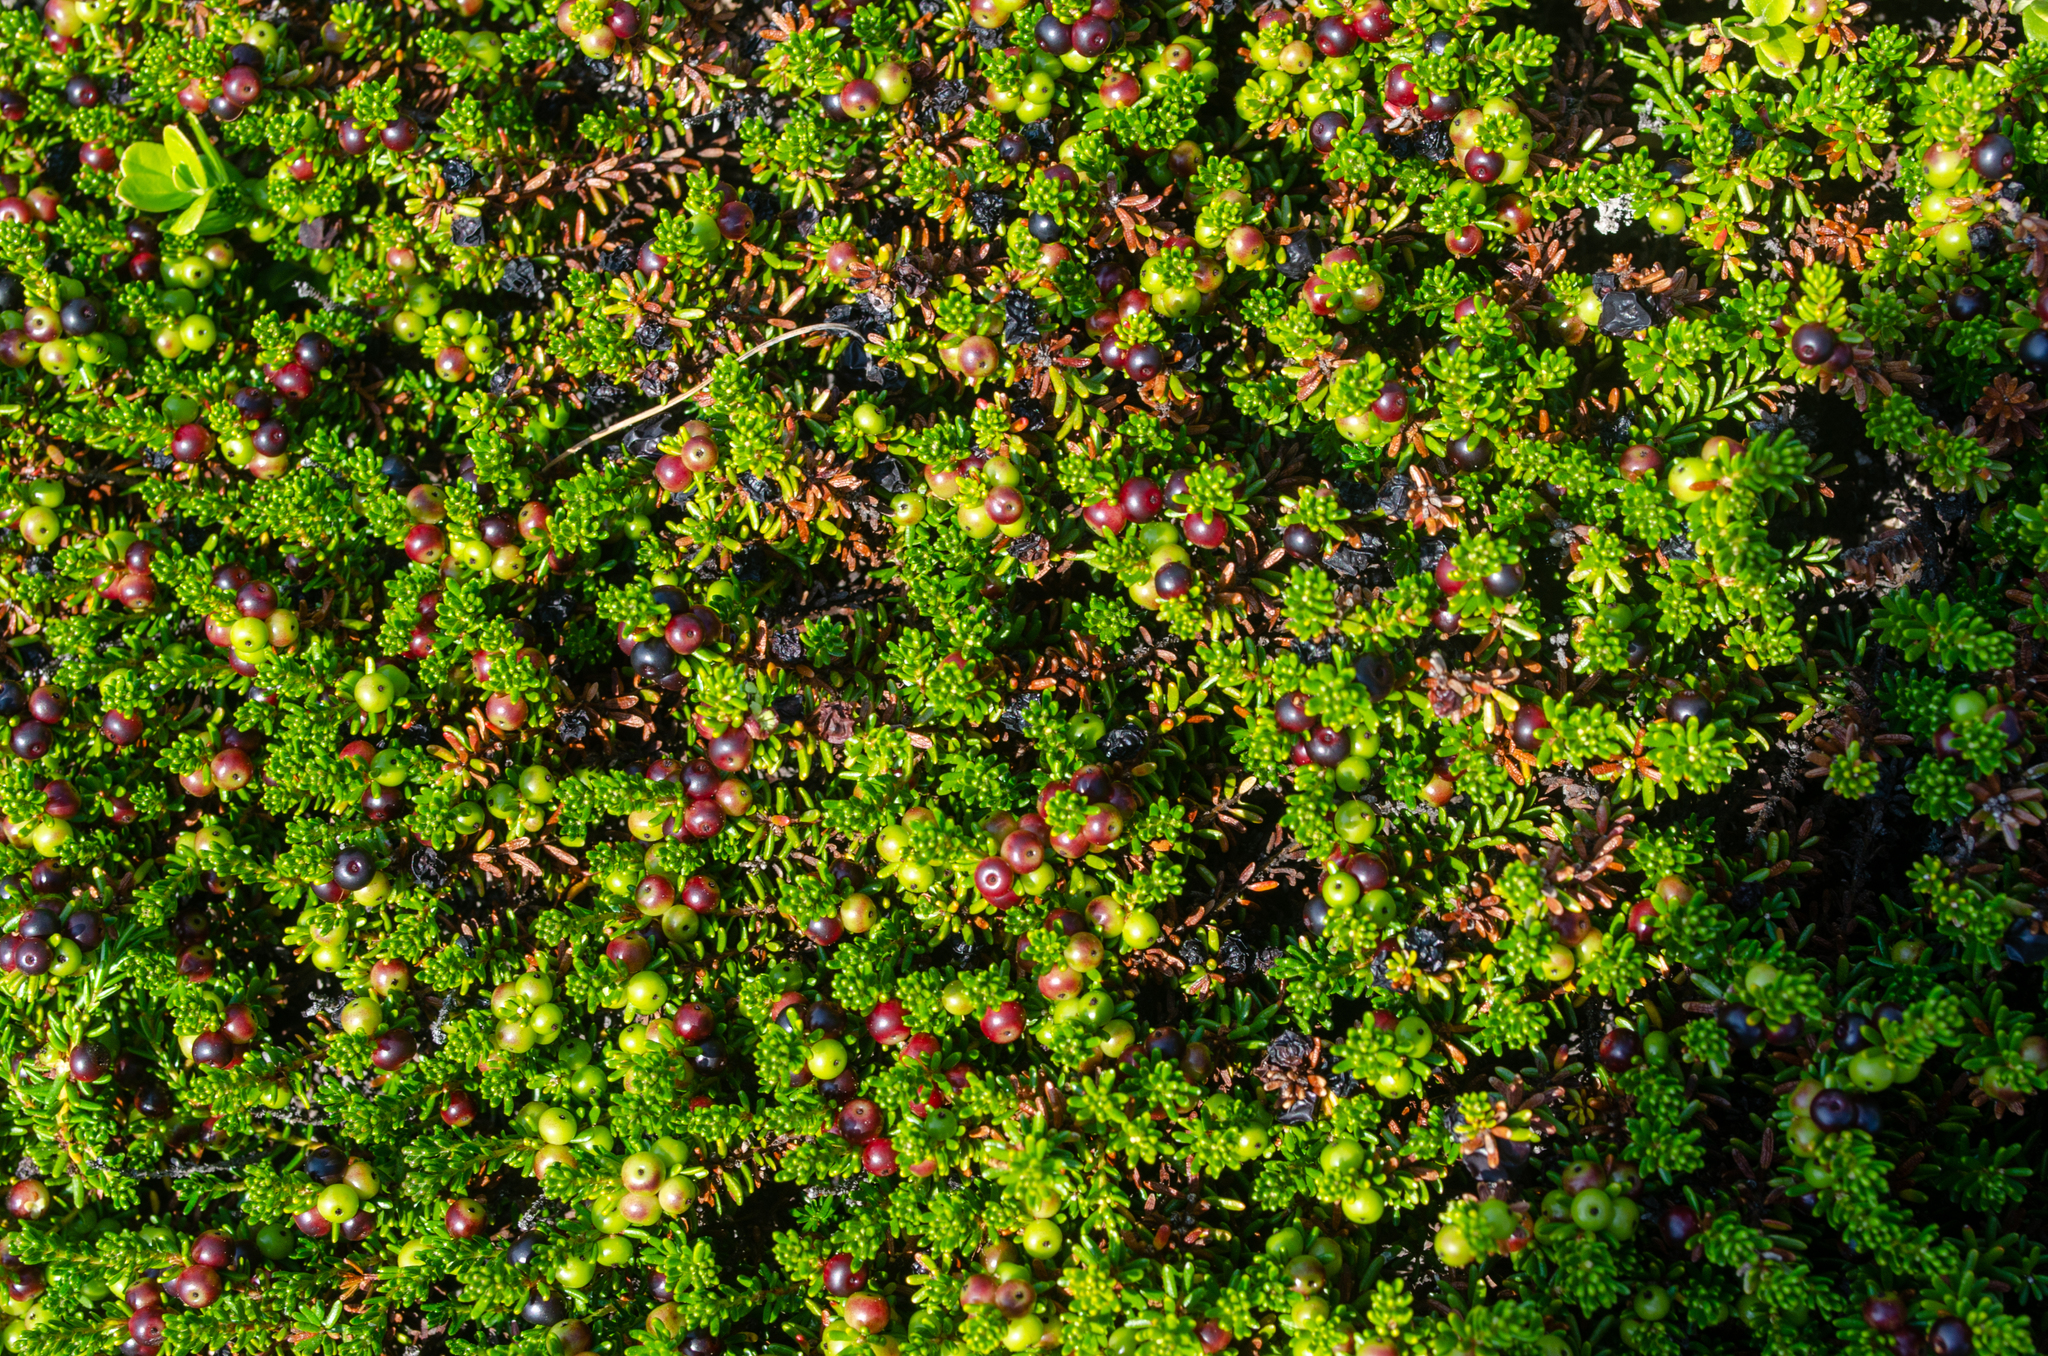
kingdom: Plantae
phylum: Tracheophyta
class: Magnoliopsida
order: Ericales
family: Ericaceae
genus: Empetrum
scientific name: Empetrum nigrum
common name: Black crowberry
